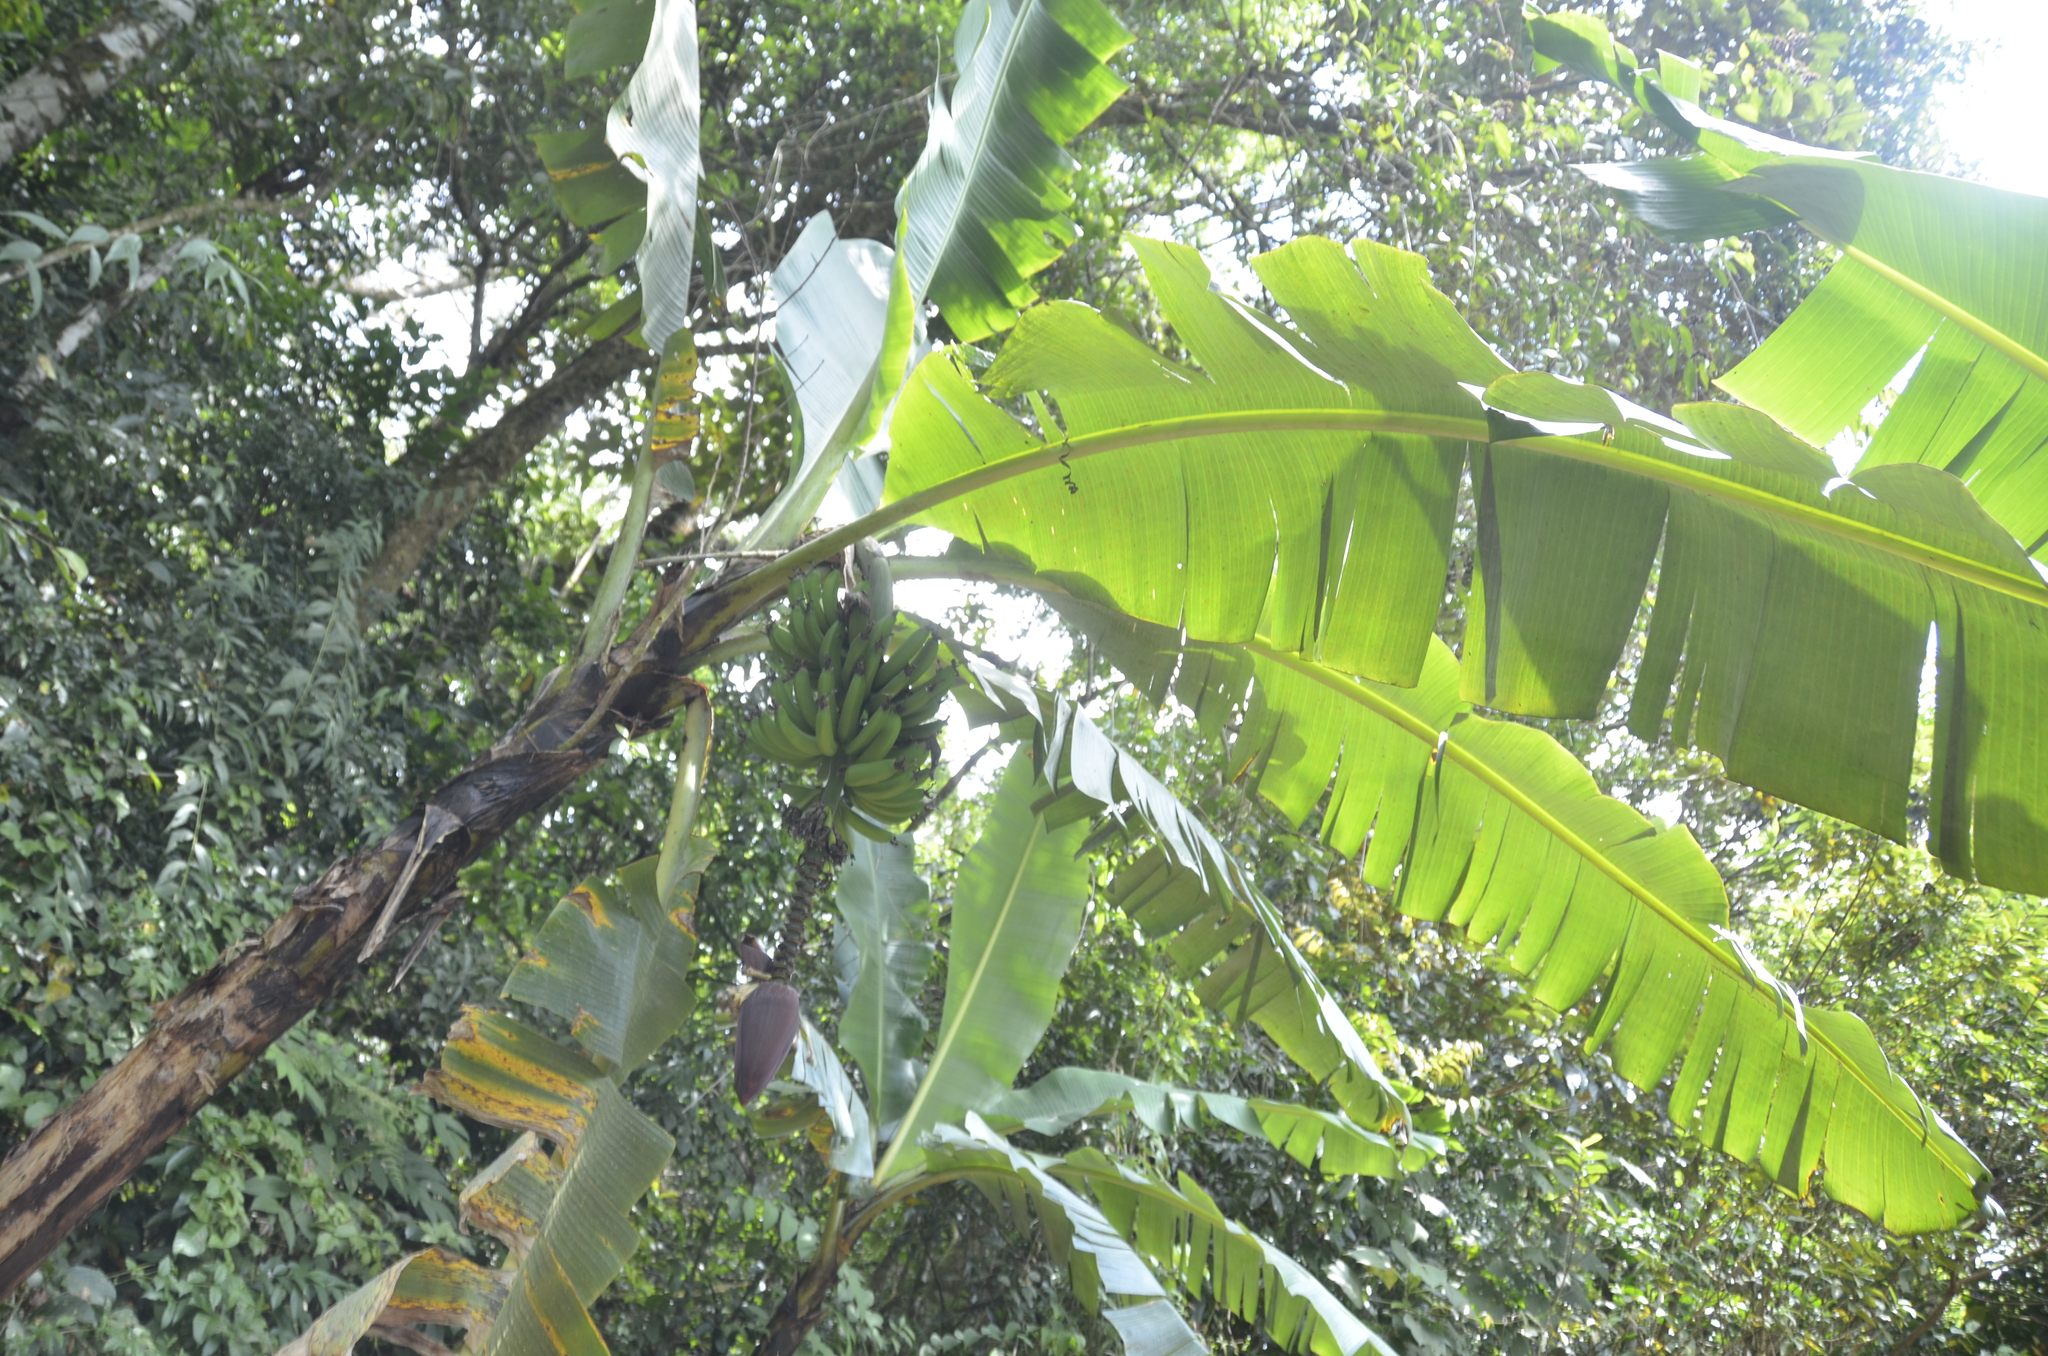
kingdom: Plantae
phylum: Tracheophyta
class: Liliopsida
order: Zingiberales
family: Musaceae
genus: Musa
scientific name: Musa acuminata
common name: Edible banana
